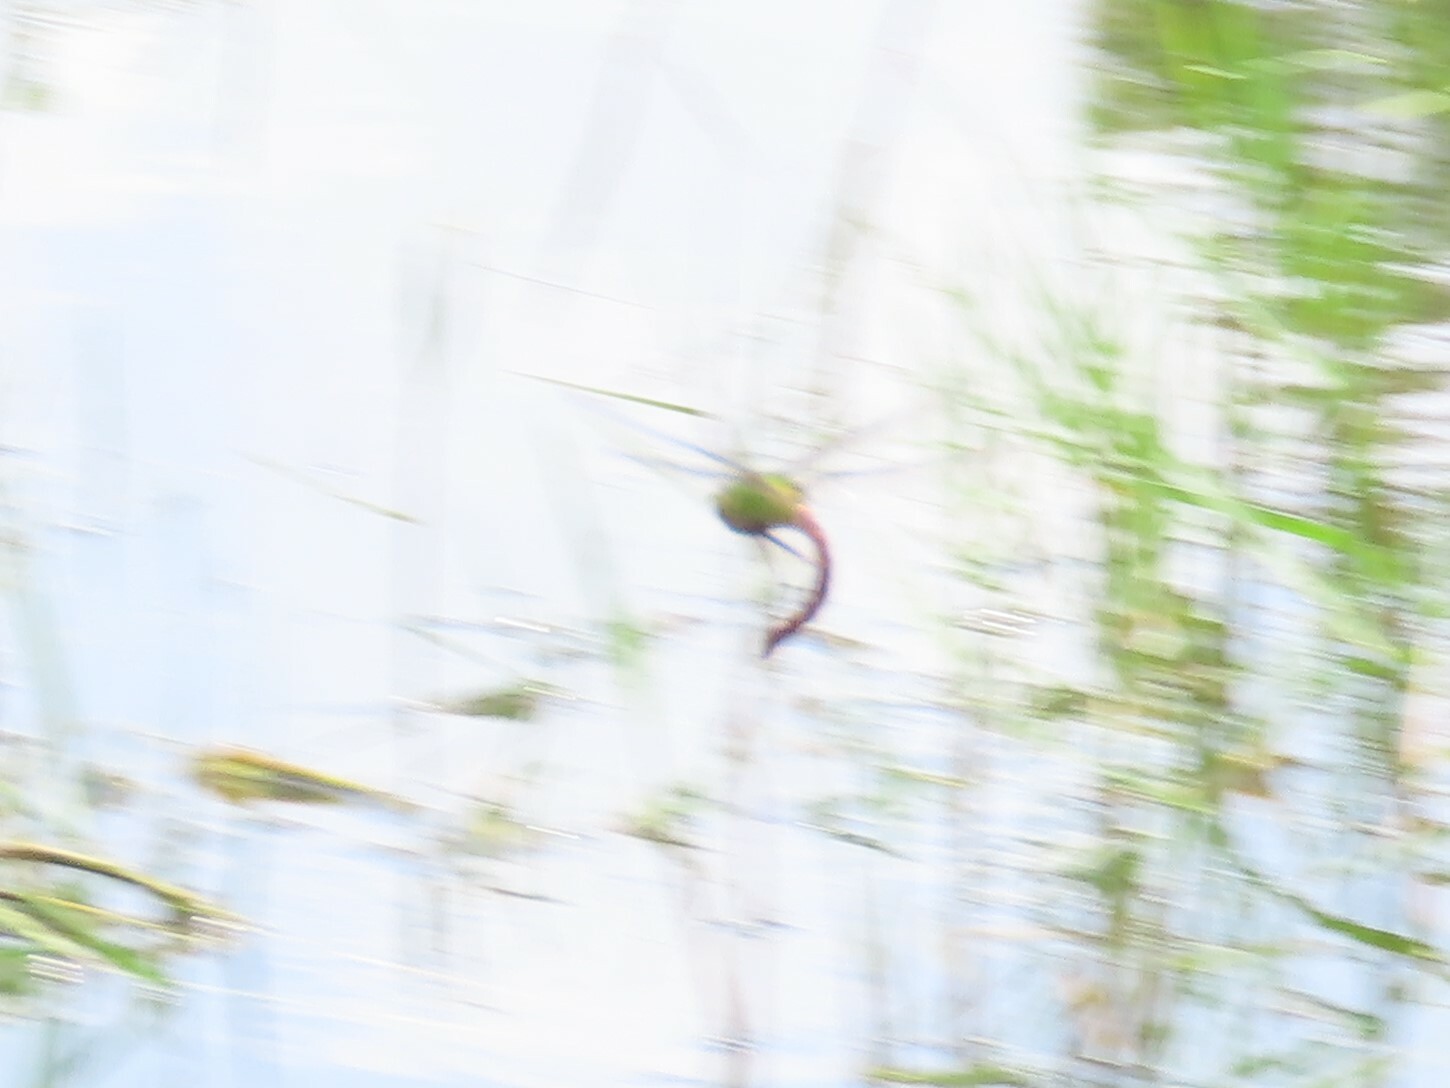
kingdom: Animalia
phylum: Arthropoda
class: Insecta
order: Odonata
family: Aeshnidae
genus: Anax
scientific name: Anax longipes
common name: Comet darner
